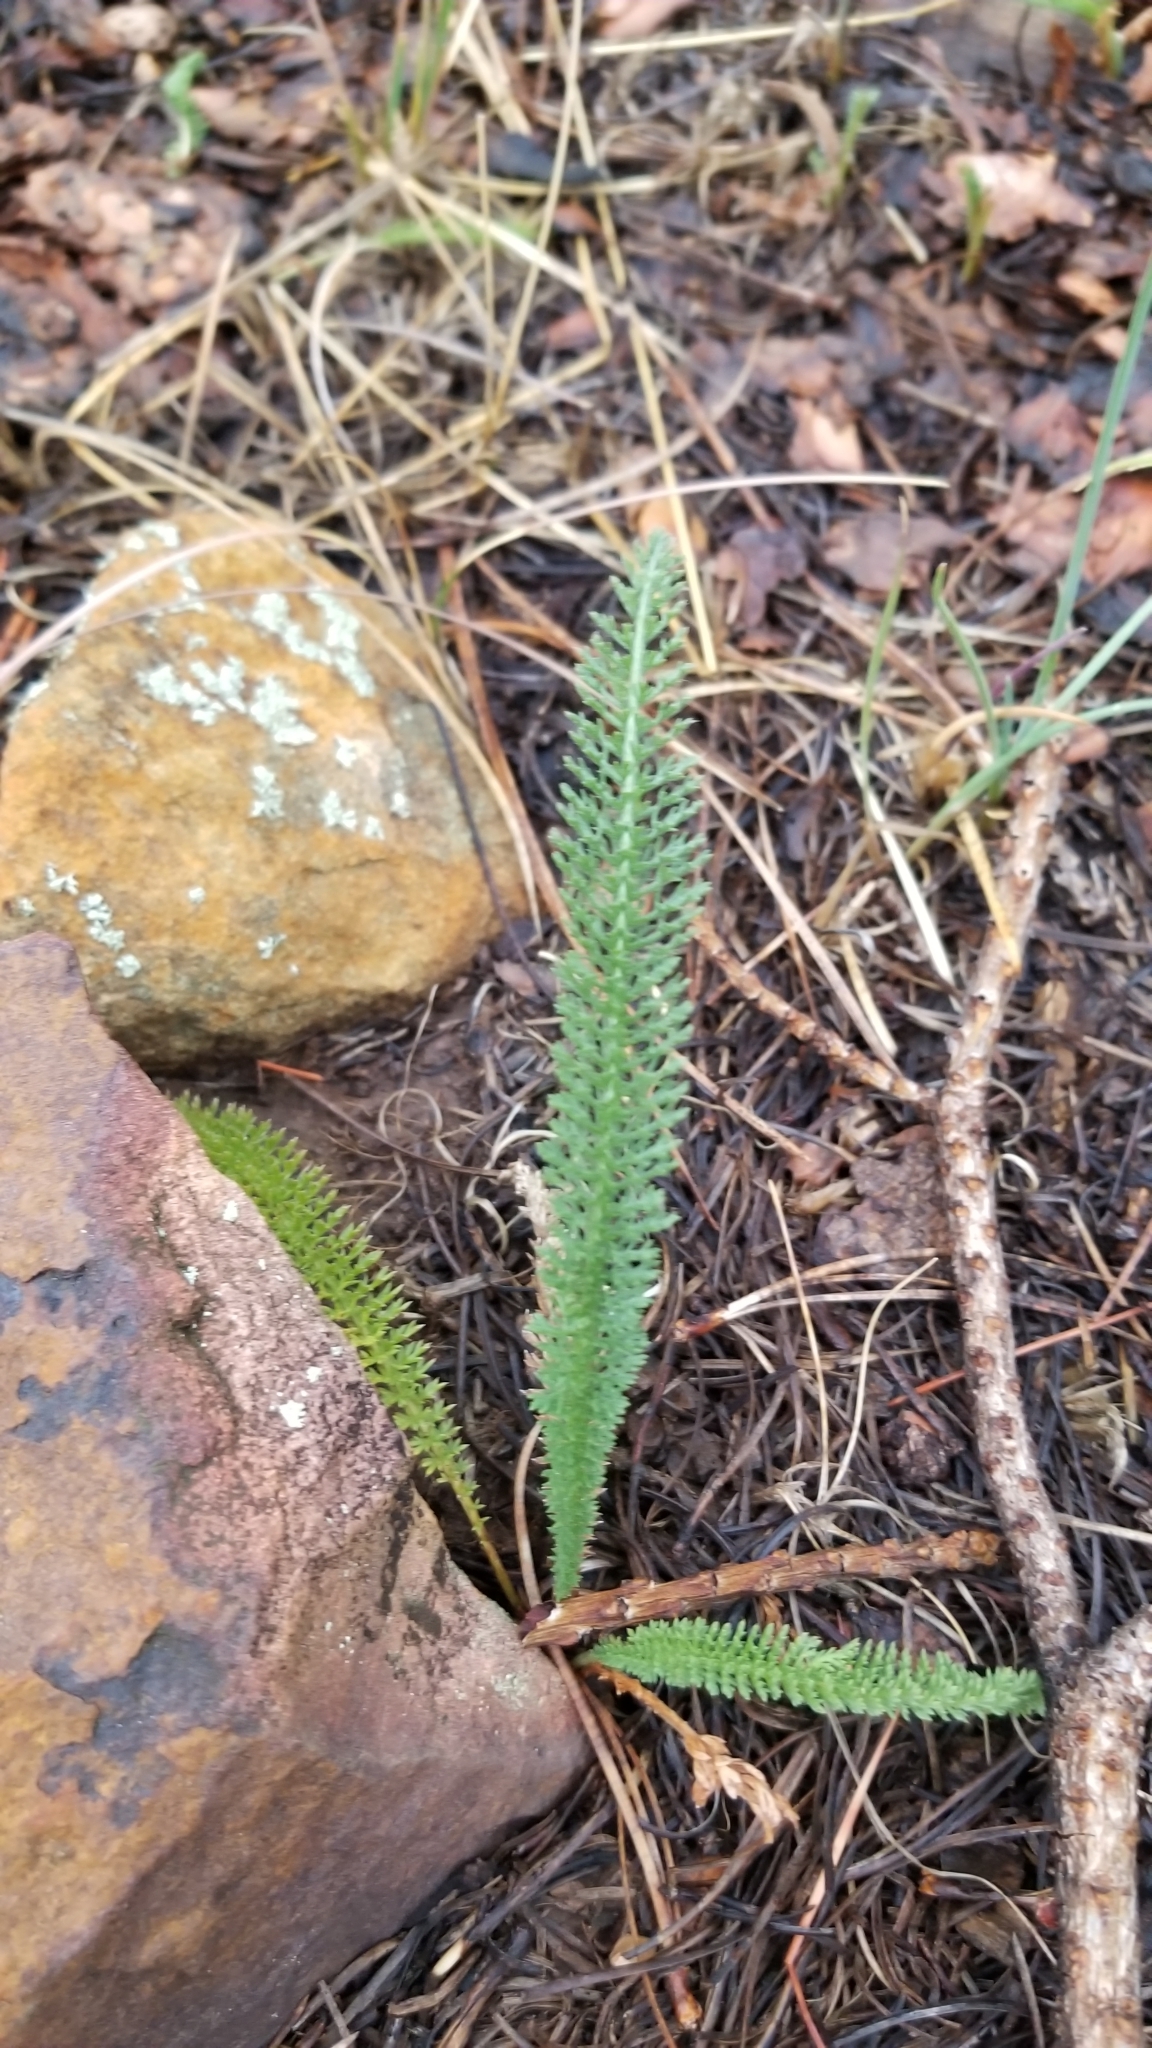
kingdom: Plantae
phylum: Tracheophyta
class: Magnoliopsida
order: Asterales
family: Asteraceae
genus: Achillea
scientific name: Achillea millefolium
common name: Yarrow
